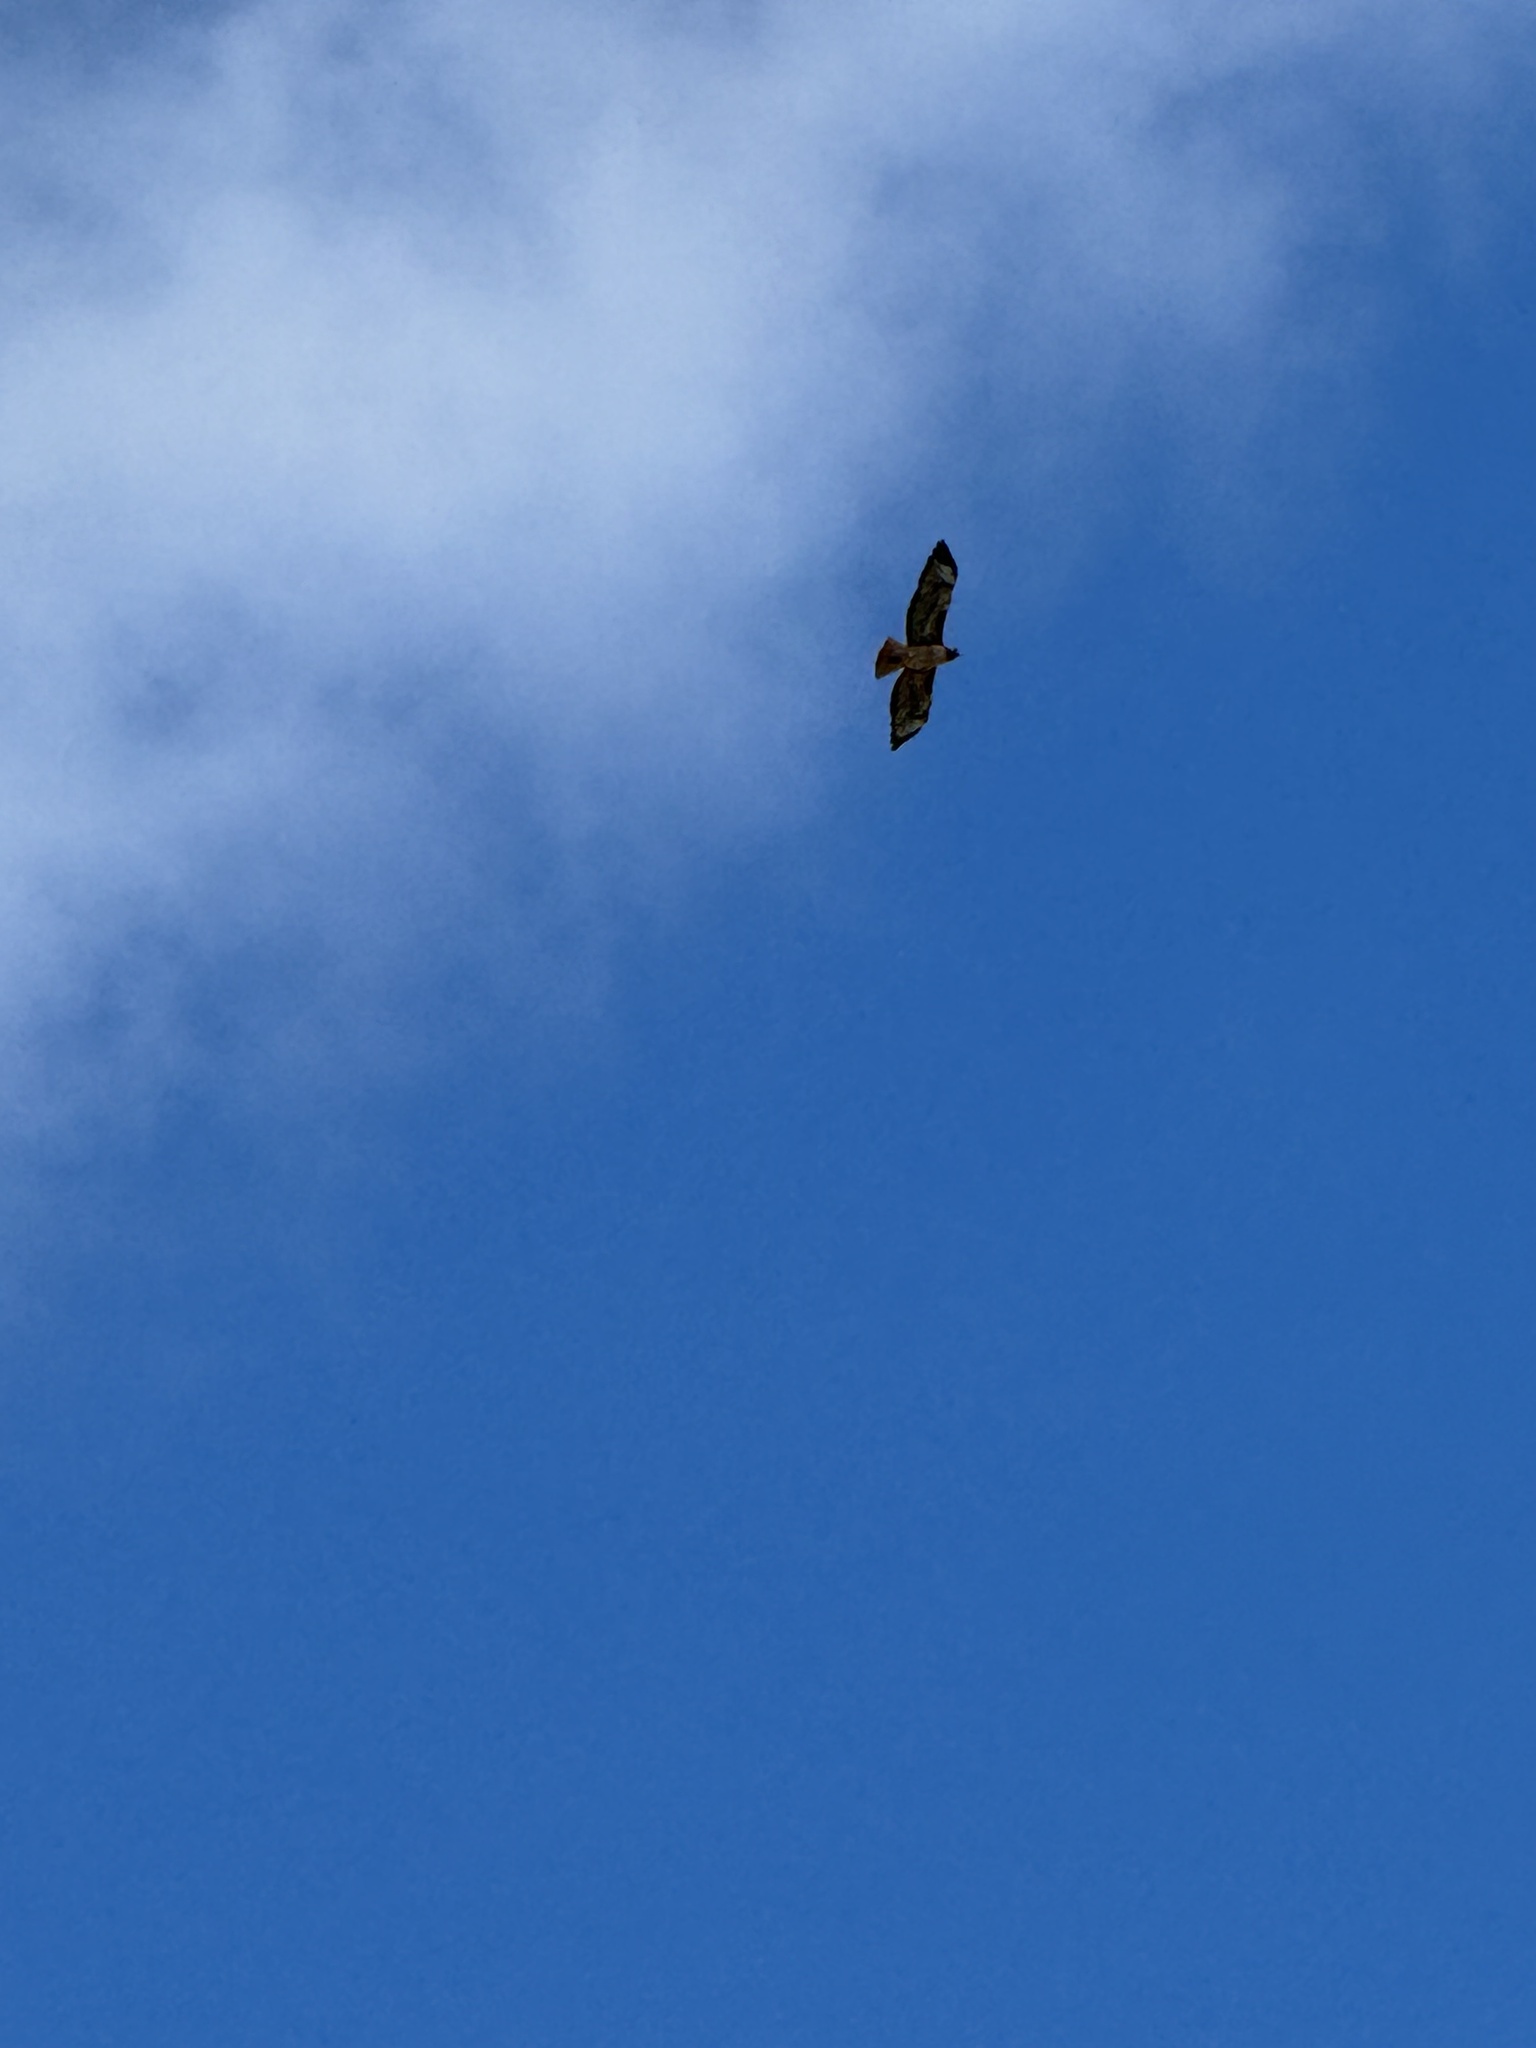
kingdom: Animalia
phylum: Chordata
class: Aves
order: Accipitriformes
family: Accipitridae
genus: Buteo
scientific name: Buteo jamaicensis
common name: Red-tailed hawk
